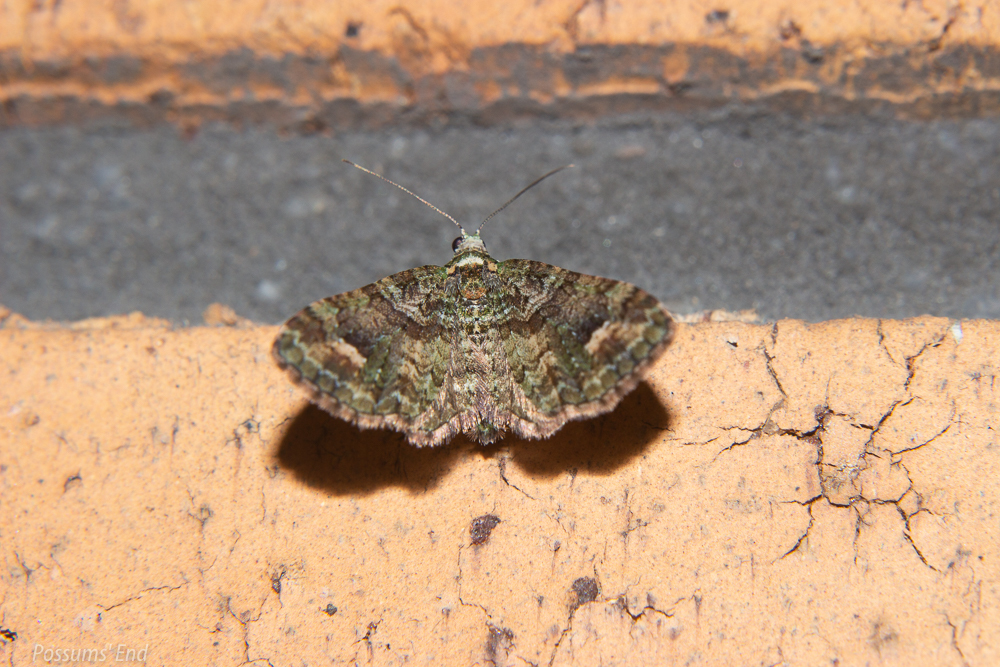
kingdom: Animalia
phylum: Arthropoda
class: Insecta
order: Lepidoptera
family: Geometridae
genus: Idaea
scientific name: Idaea mutanda
